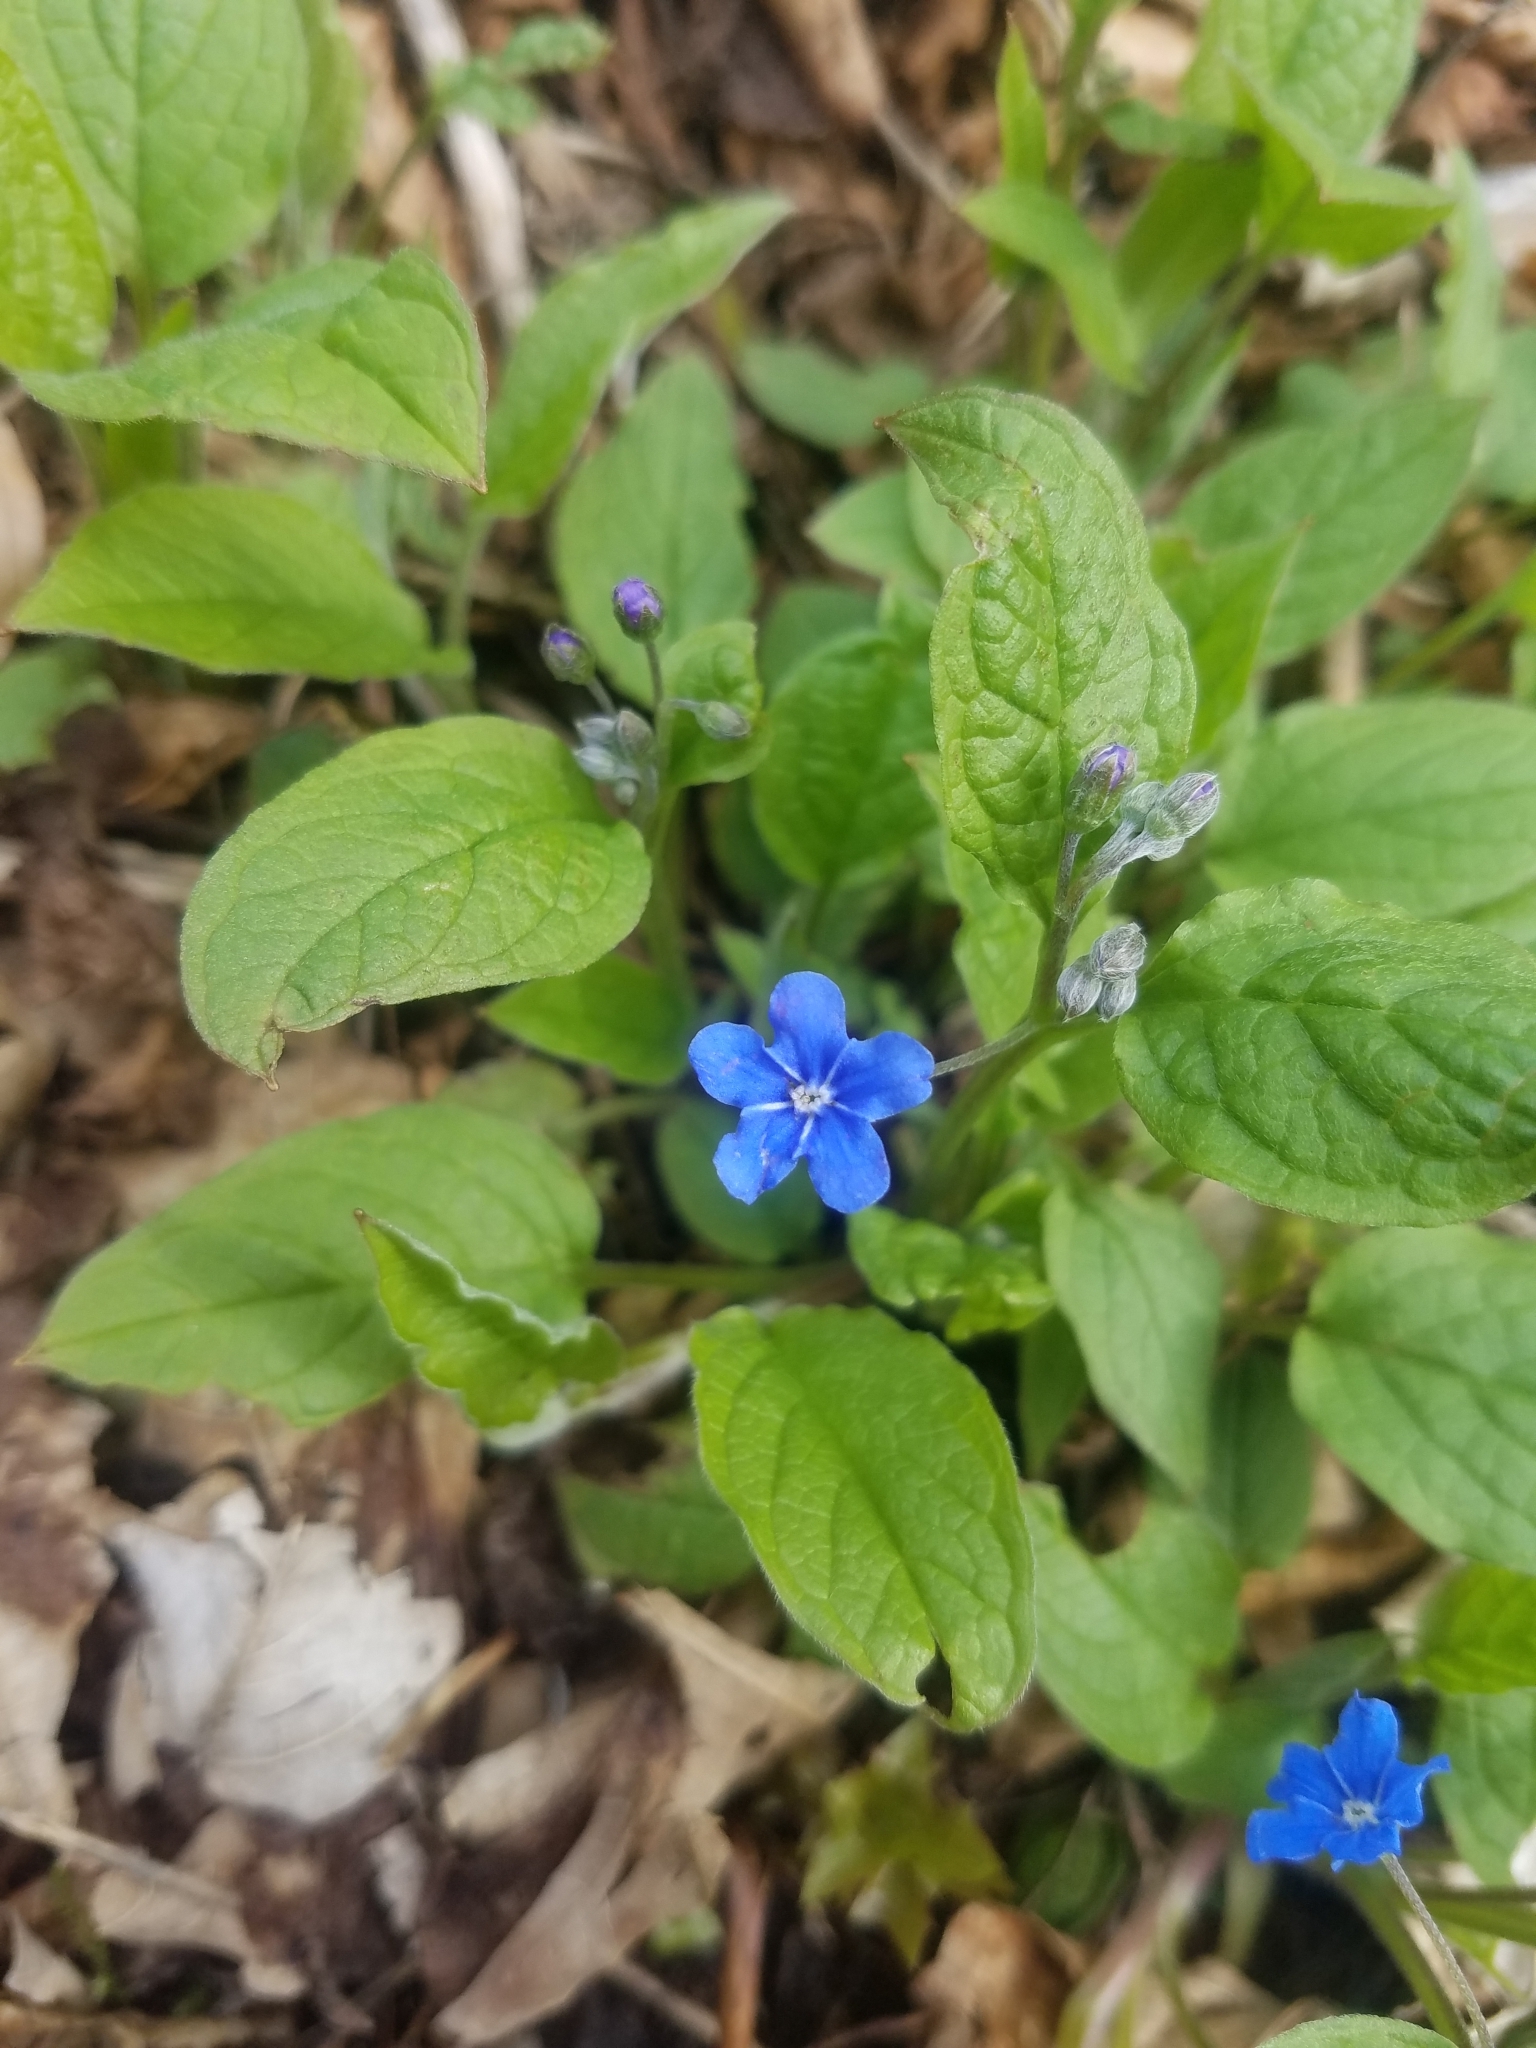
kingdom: Plantae
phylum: Tracheophyta
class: Magnoliopsida
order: Boraginales
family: Boraginaceae
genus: Omphalodes
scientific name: Omphalodes verna
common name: Blue-eyed-mary
